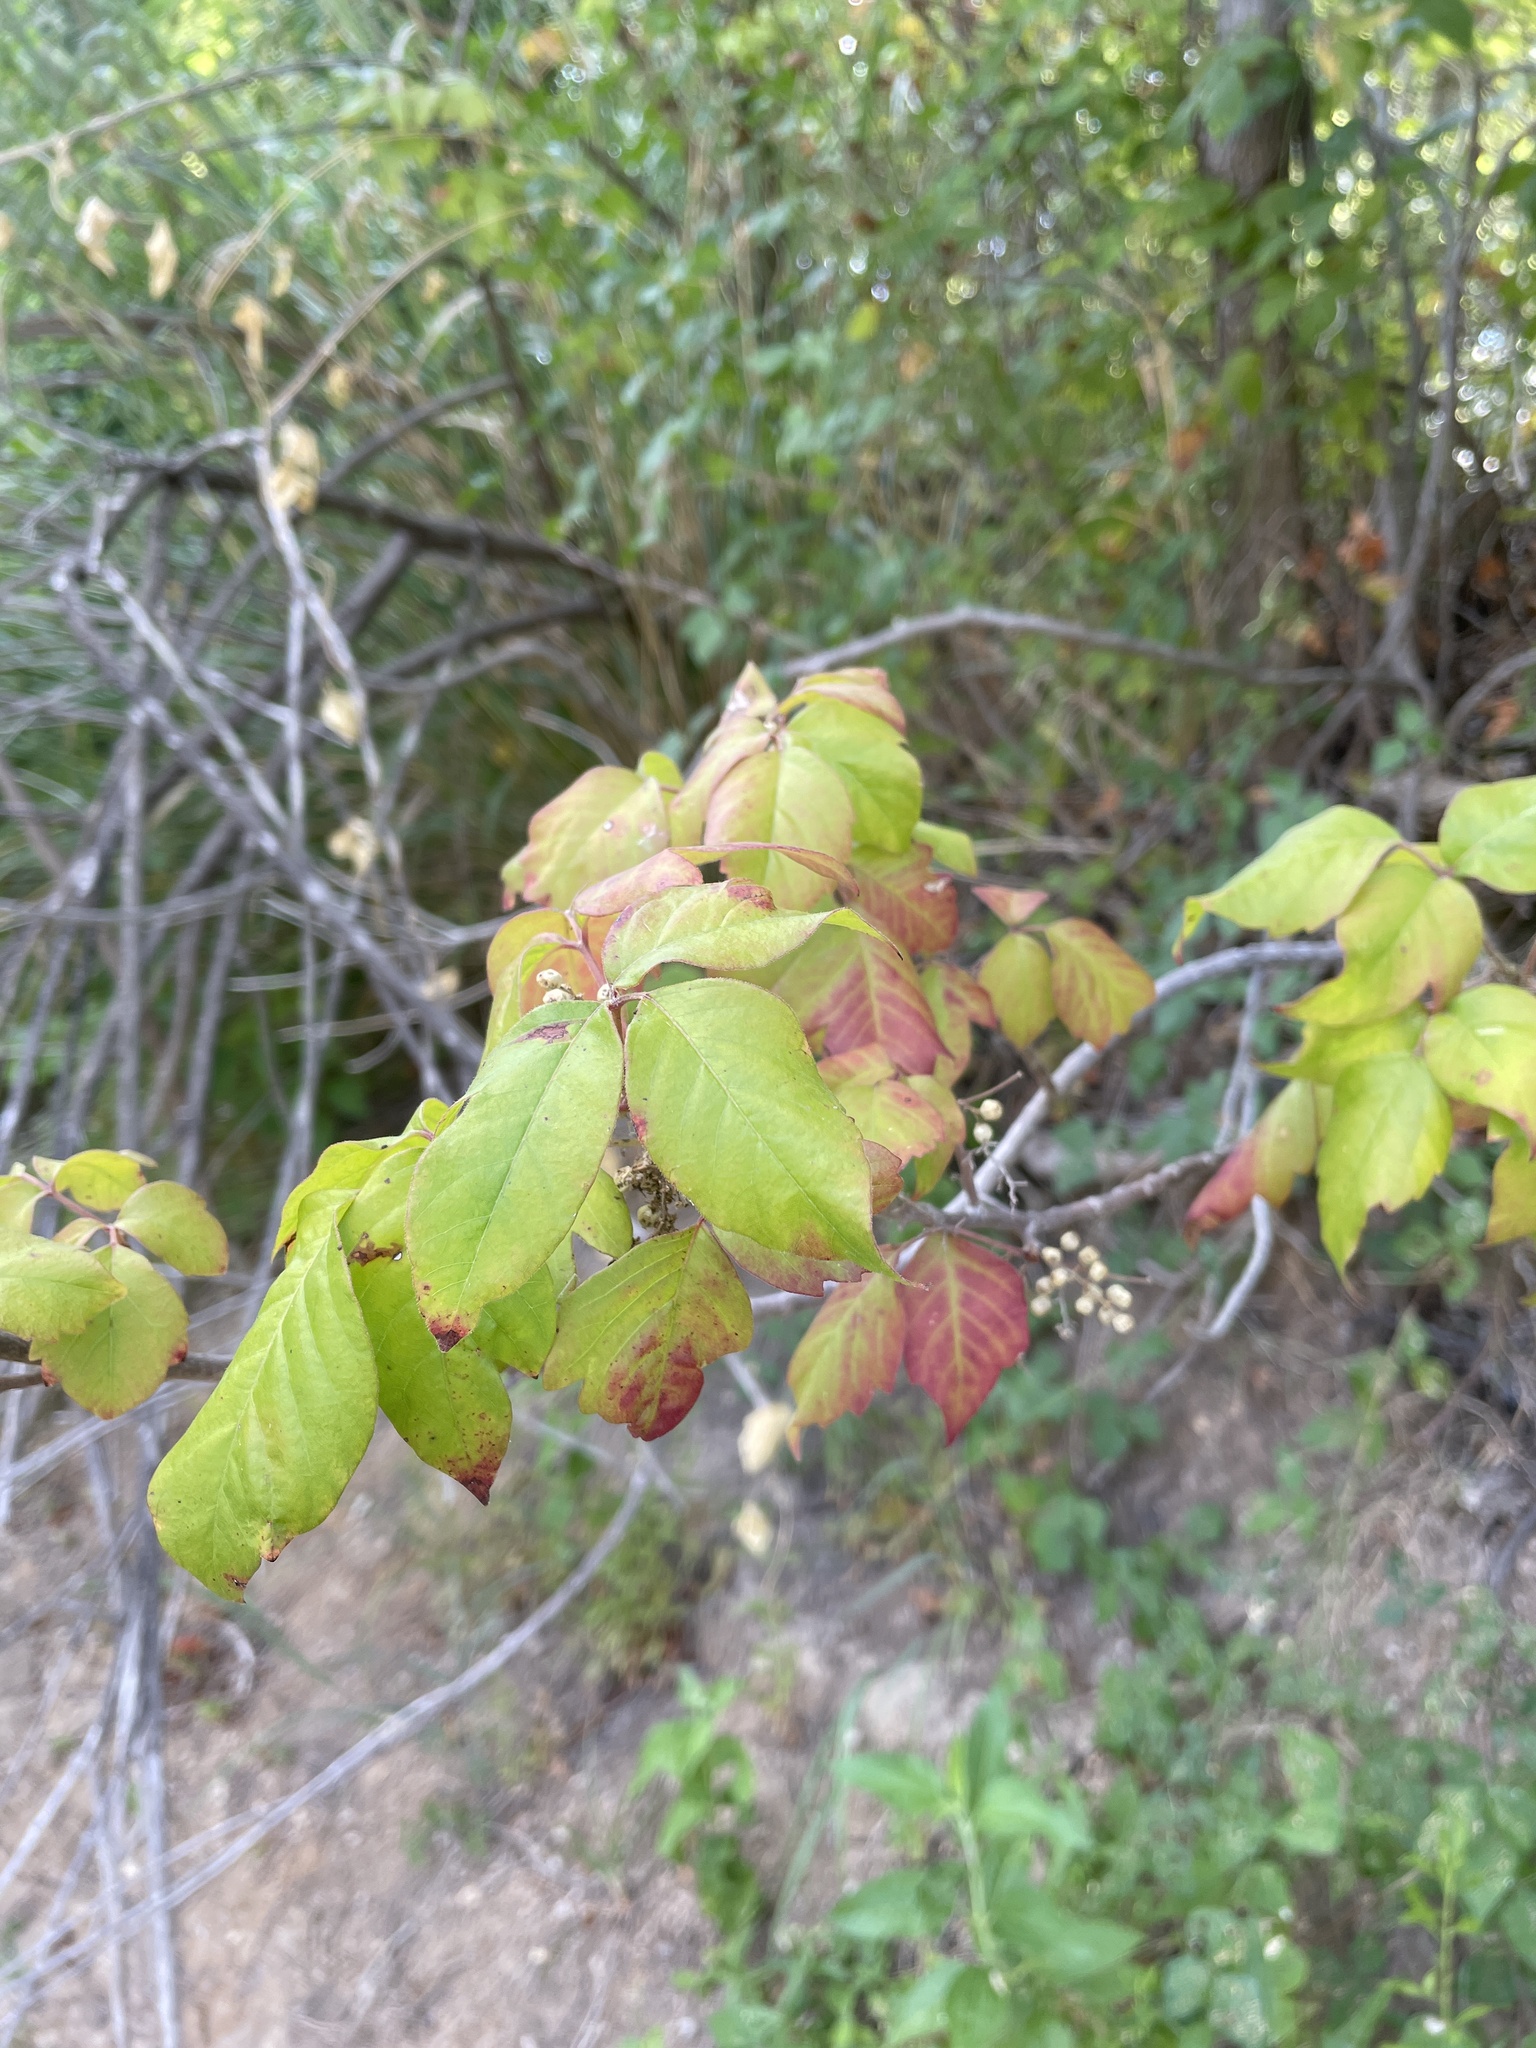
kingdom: Plantae
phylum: Tracheophyta
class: Magnoliopsida
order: Sapindales
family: Anacardiaceae
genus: Toxicodendron
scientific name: Toxicodendron radicans
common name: Poison ivy
